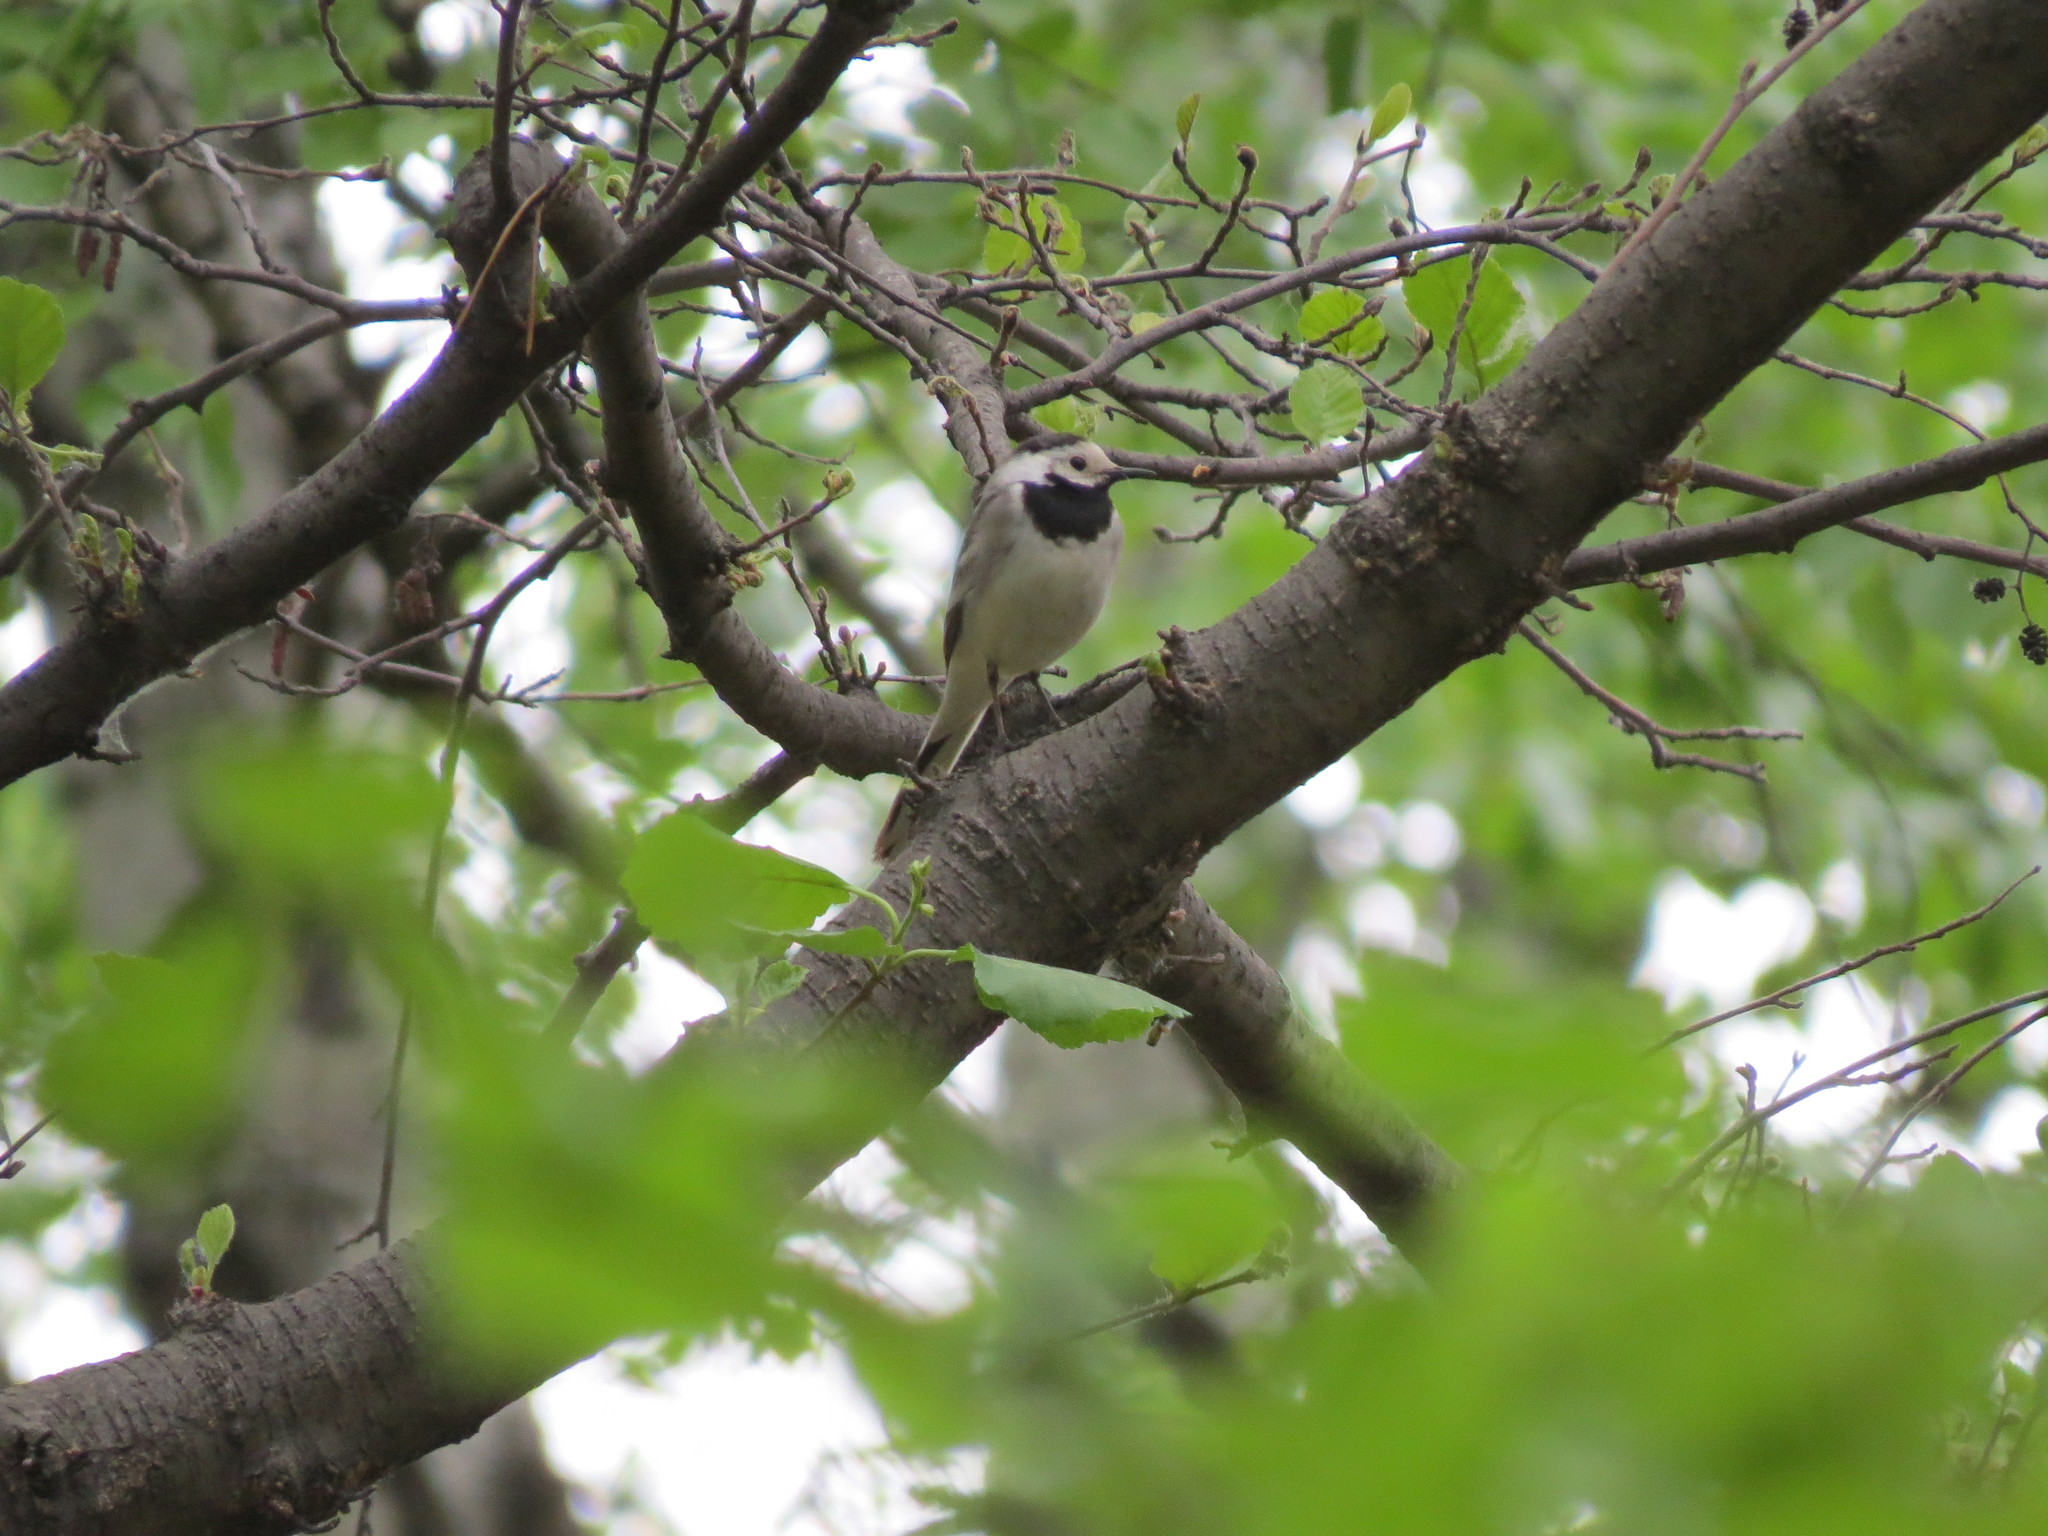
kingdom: Animalia
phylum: Chordata
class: Aves
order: Passeriformes
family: Motacillidae
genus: Motacilla
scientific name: Motacilla alba
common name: White wagtail
